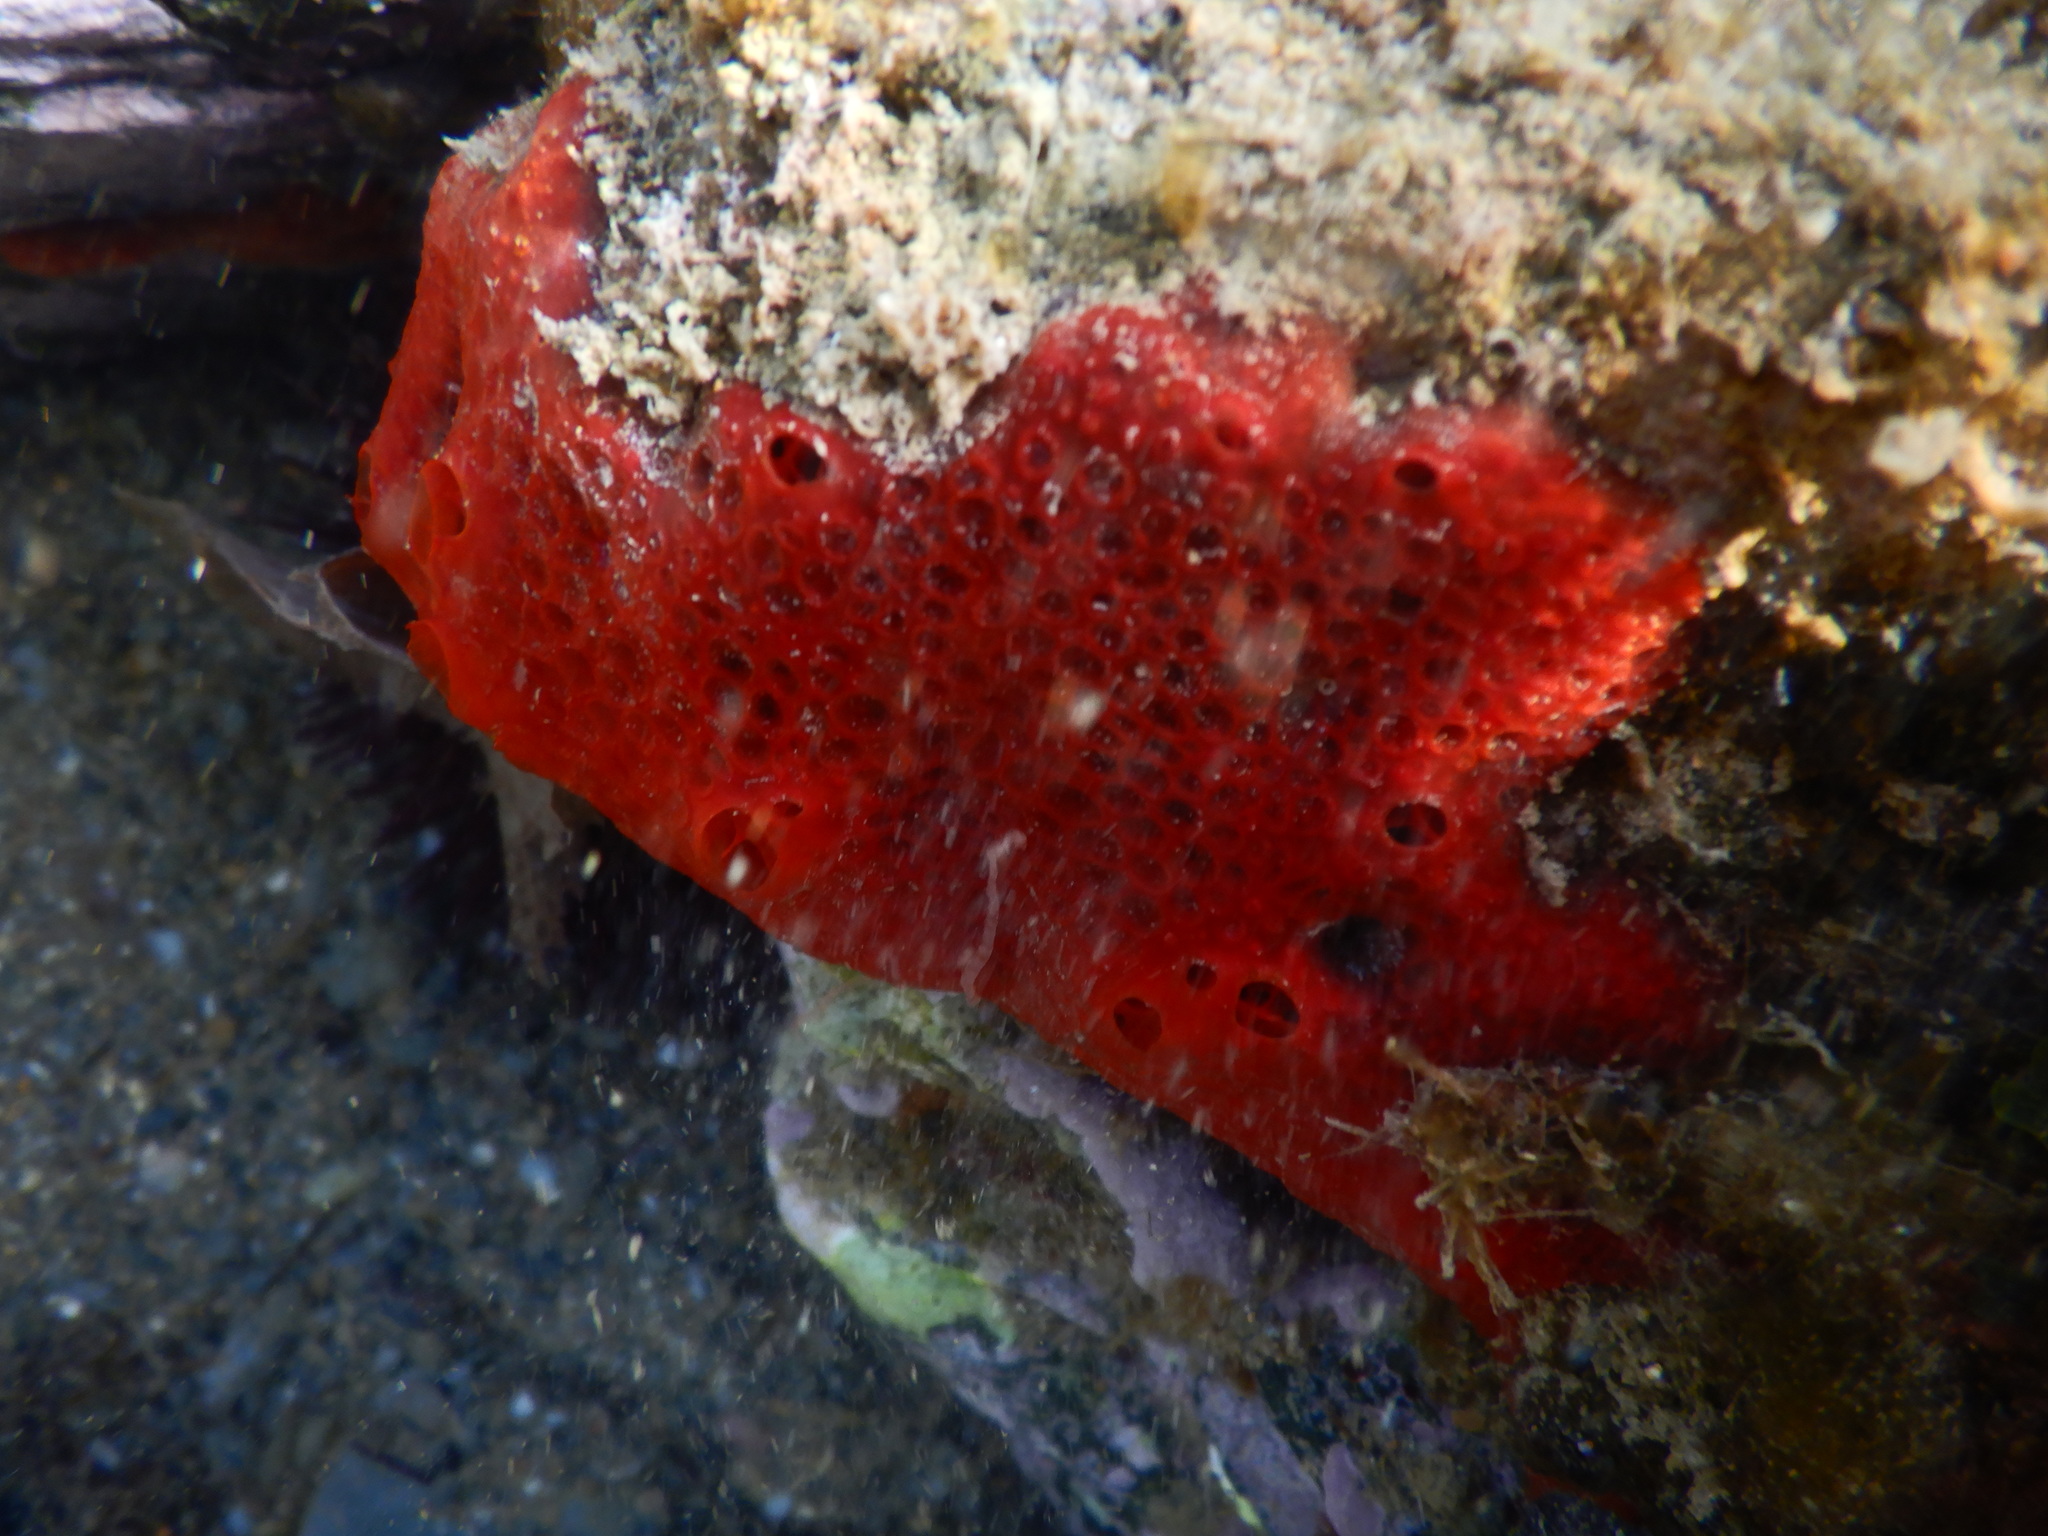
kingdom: Animalia
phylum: Porifera
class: Demospongiae
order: Poecilosclerida
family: Hymedesmiidae
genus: Hamigera
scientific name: Hamigera hamigera
